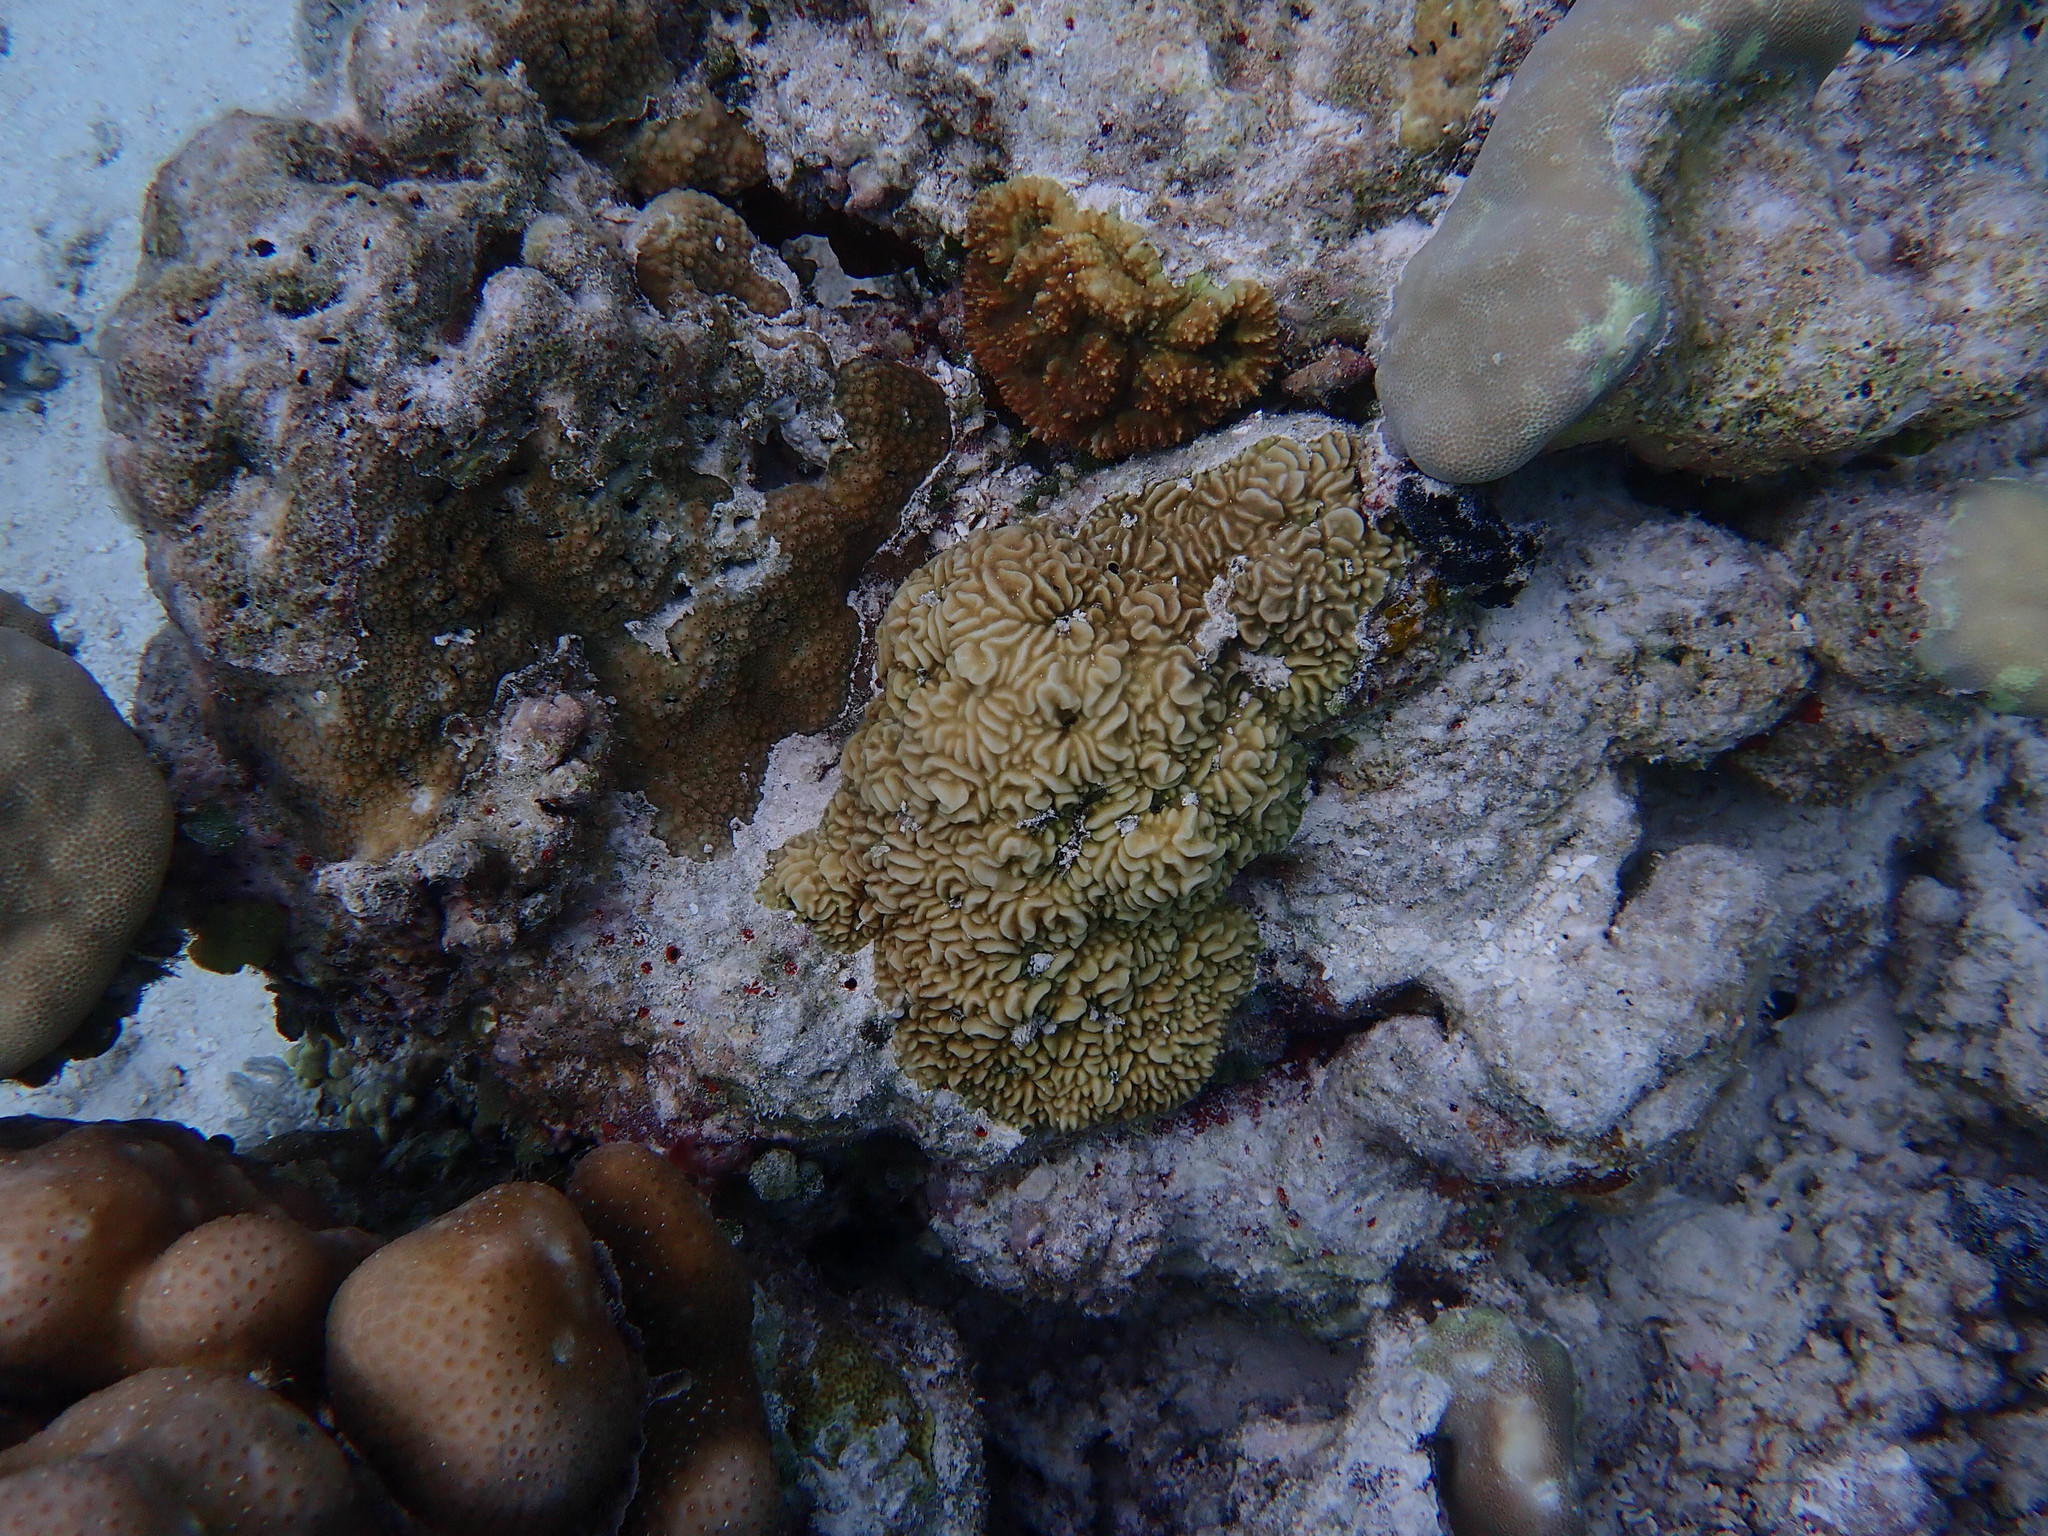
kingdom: Animalia
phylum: Cnidaria
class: Anthozoa
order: Scleractinia
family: Agariciidae
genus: Pavona
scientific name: Pavona varians
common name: Leaf coral
